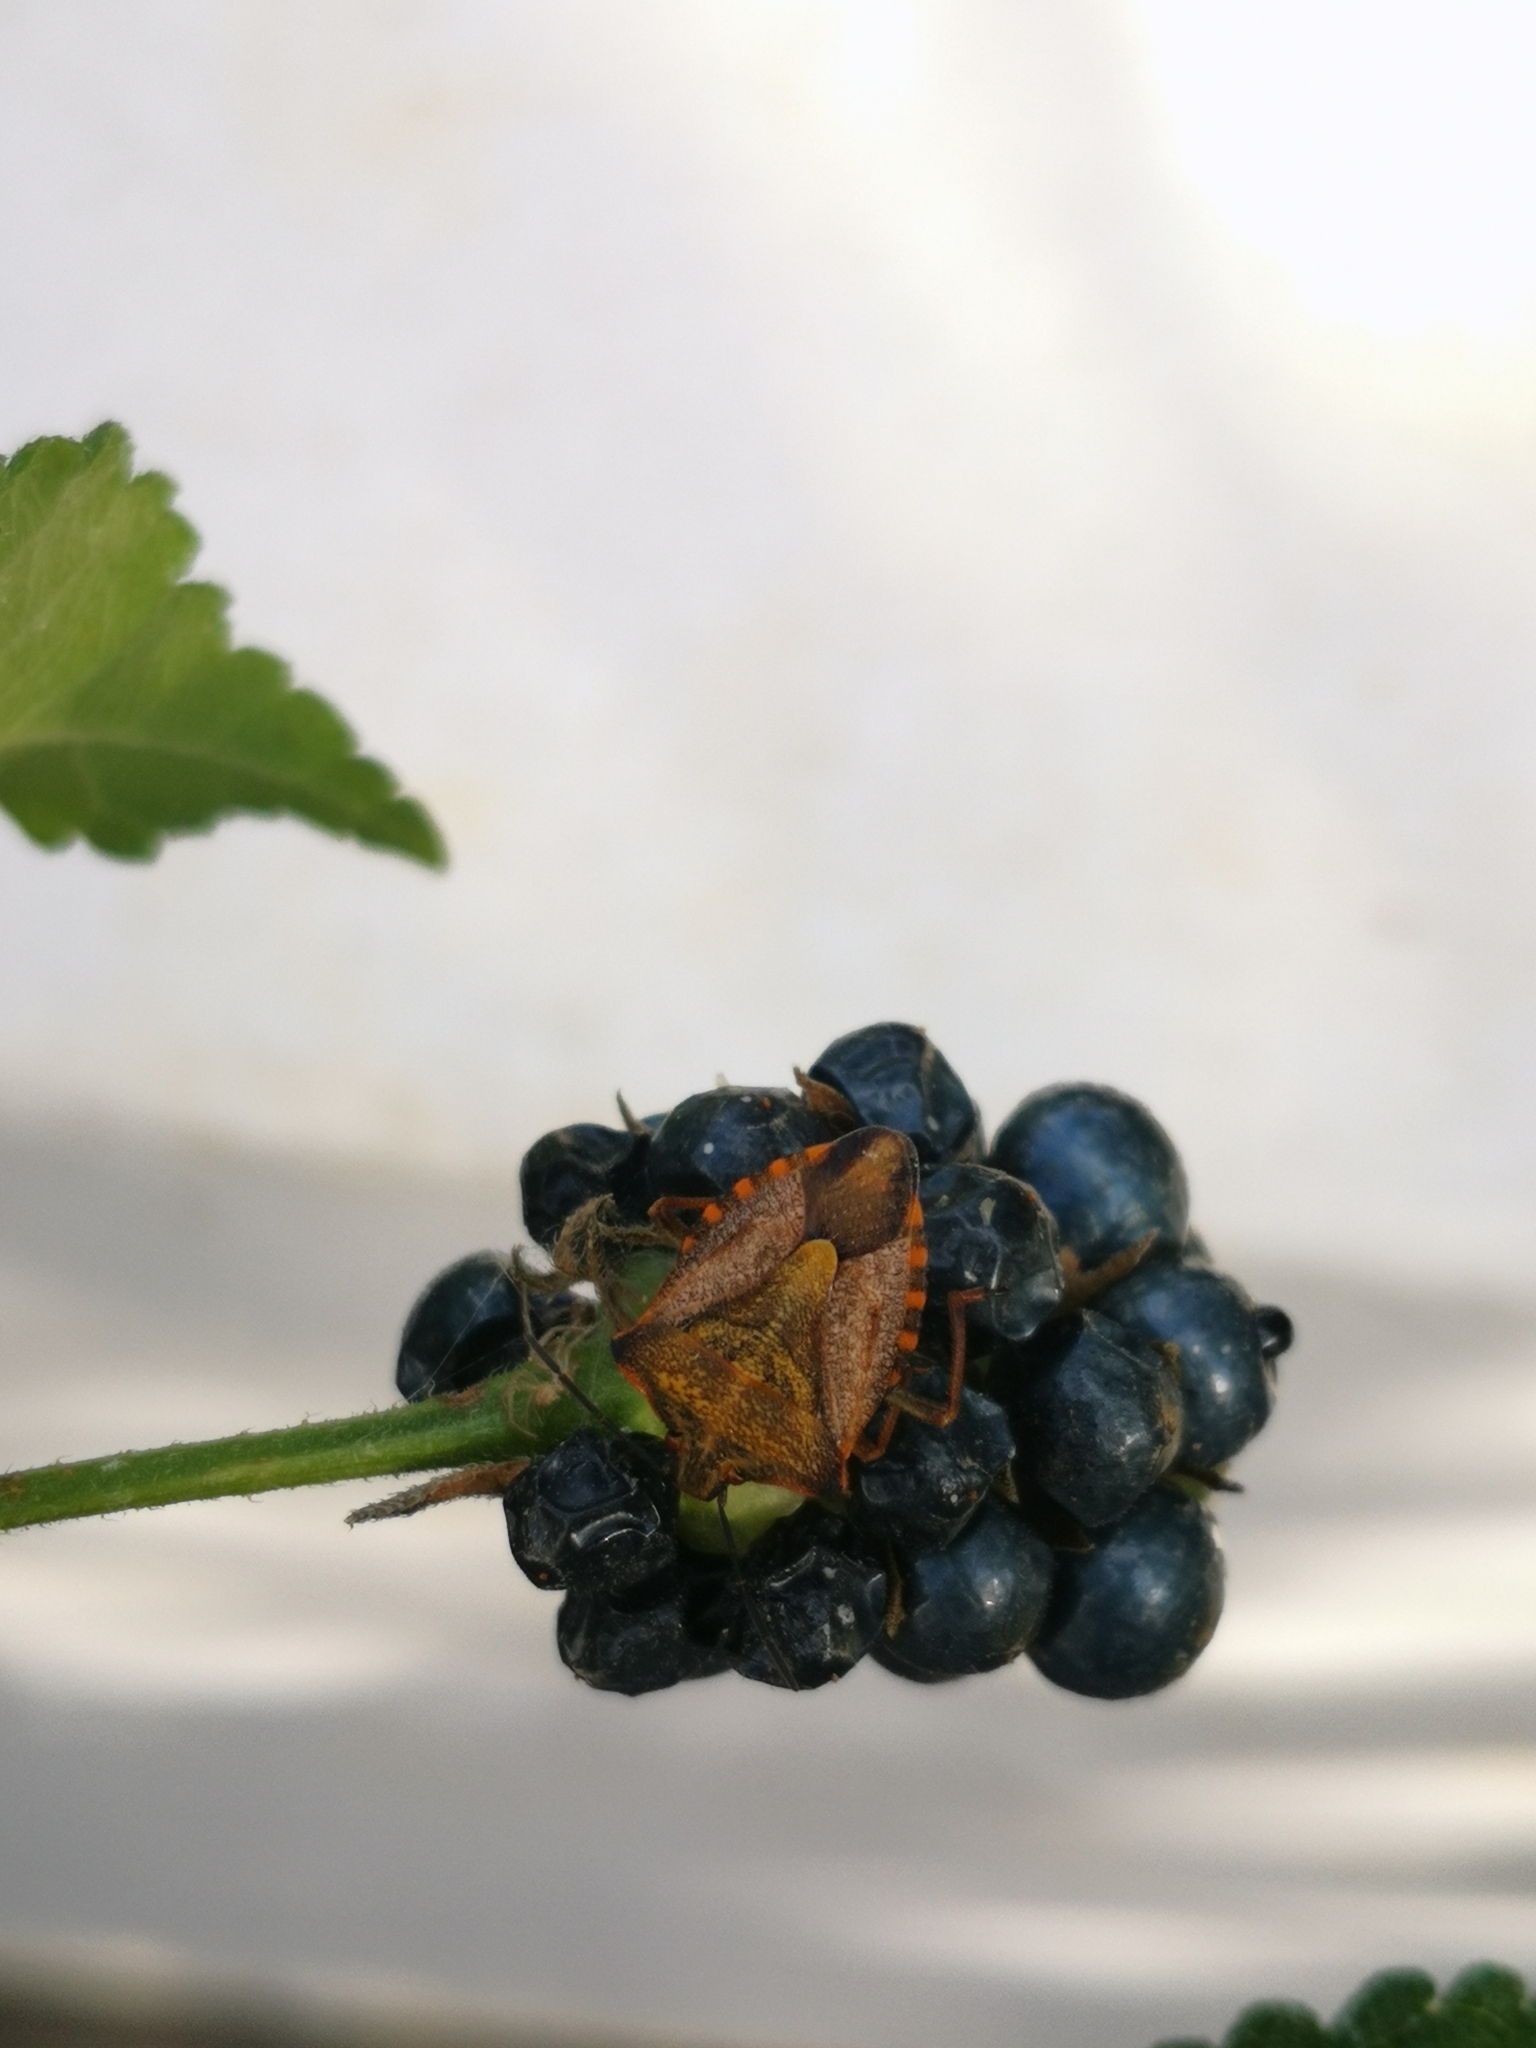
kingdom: Animalia
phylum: Arthropoda
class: Insecta
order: Hemiptera
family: Pentatomidae
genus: Carpocoris
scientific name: Carpocoris mediterraneus
